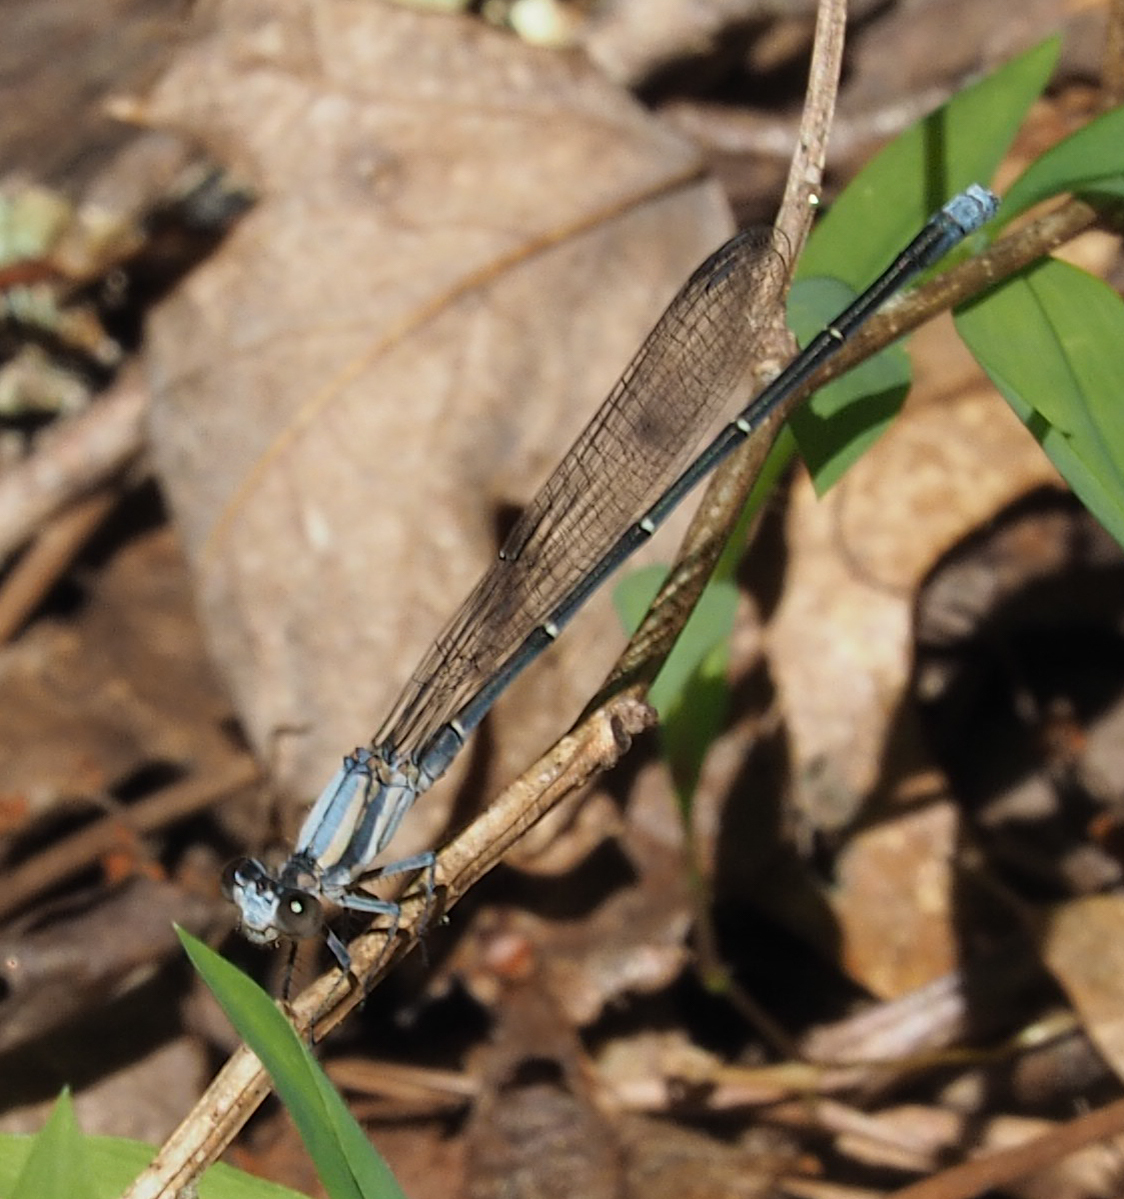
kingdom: Animalia
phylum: Arthropoda
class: Insecta
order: Odonata
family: Coenagrionidae
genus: Argia
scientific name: Argia moesta
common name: Powdered dancer
